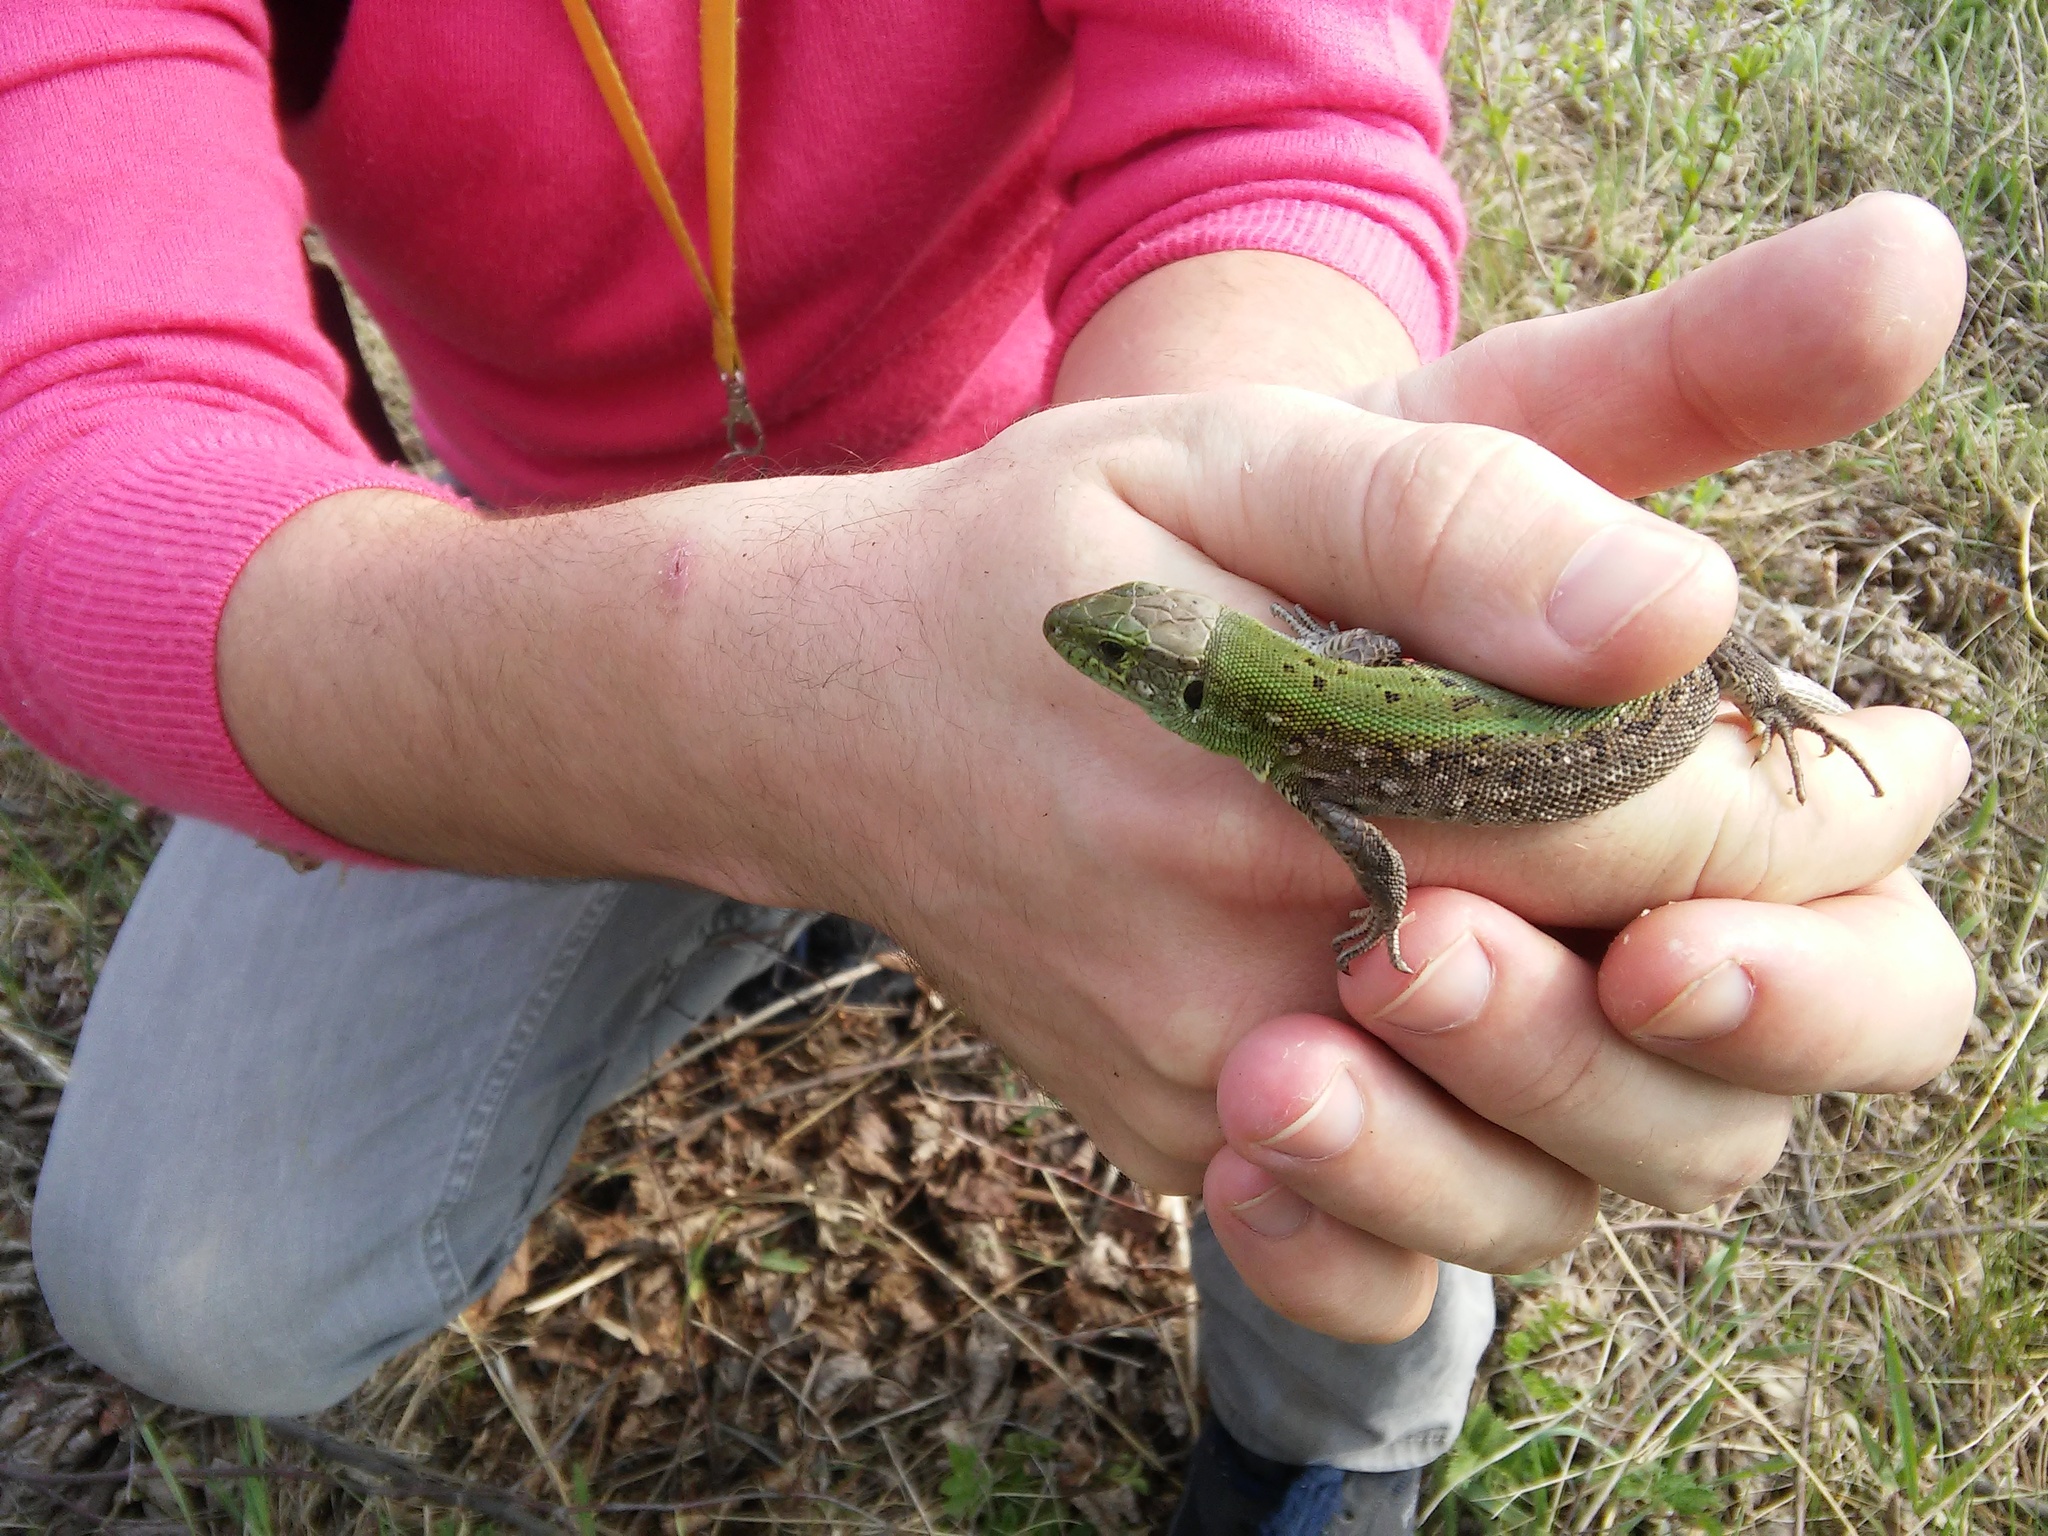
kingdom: Animalia
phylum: Chordata
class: Squamata
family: Lacertidae
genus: Lacerta
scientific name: Lacerta agilis
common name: Sand lizard
